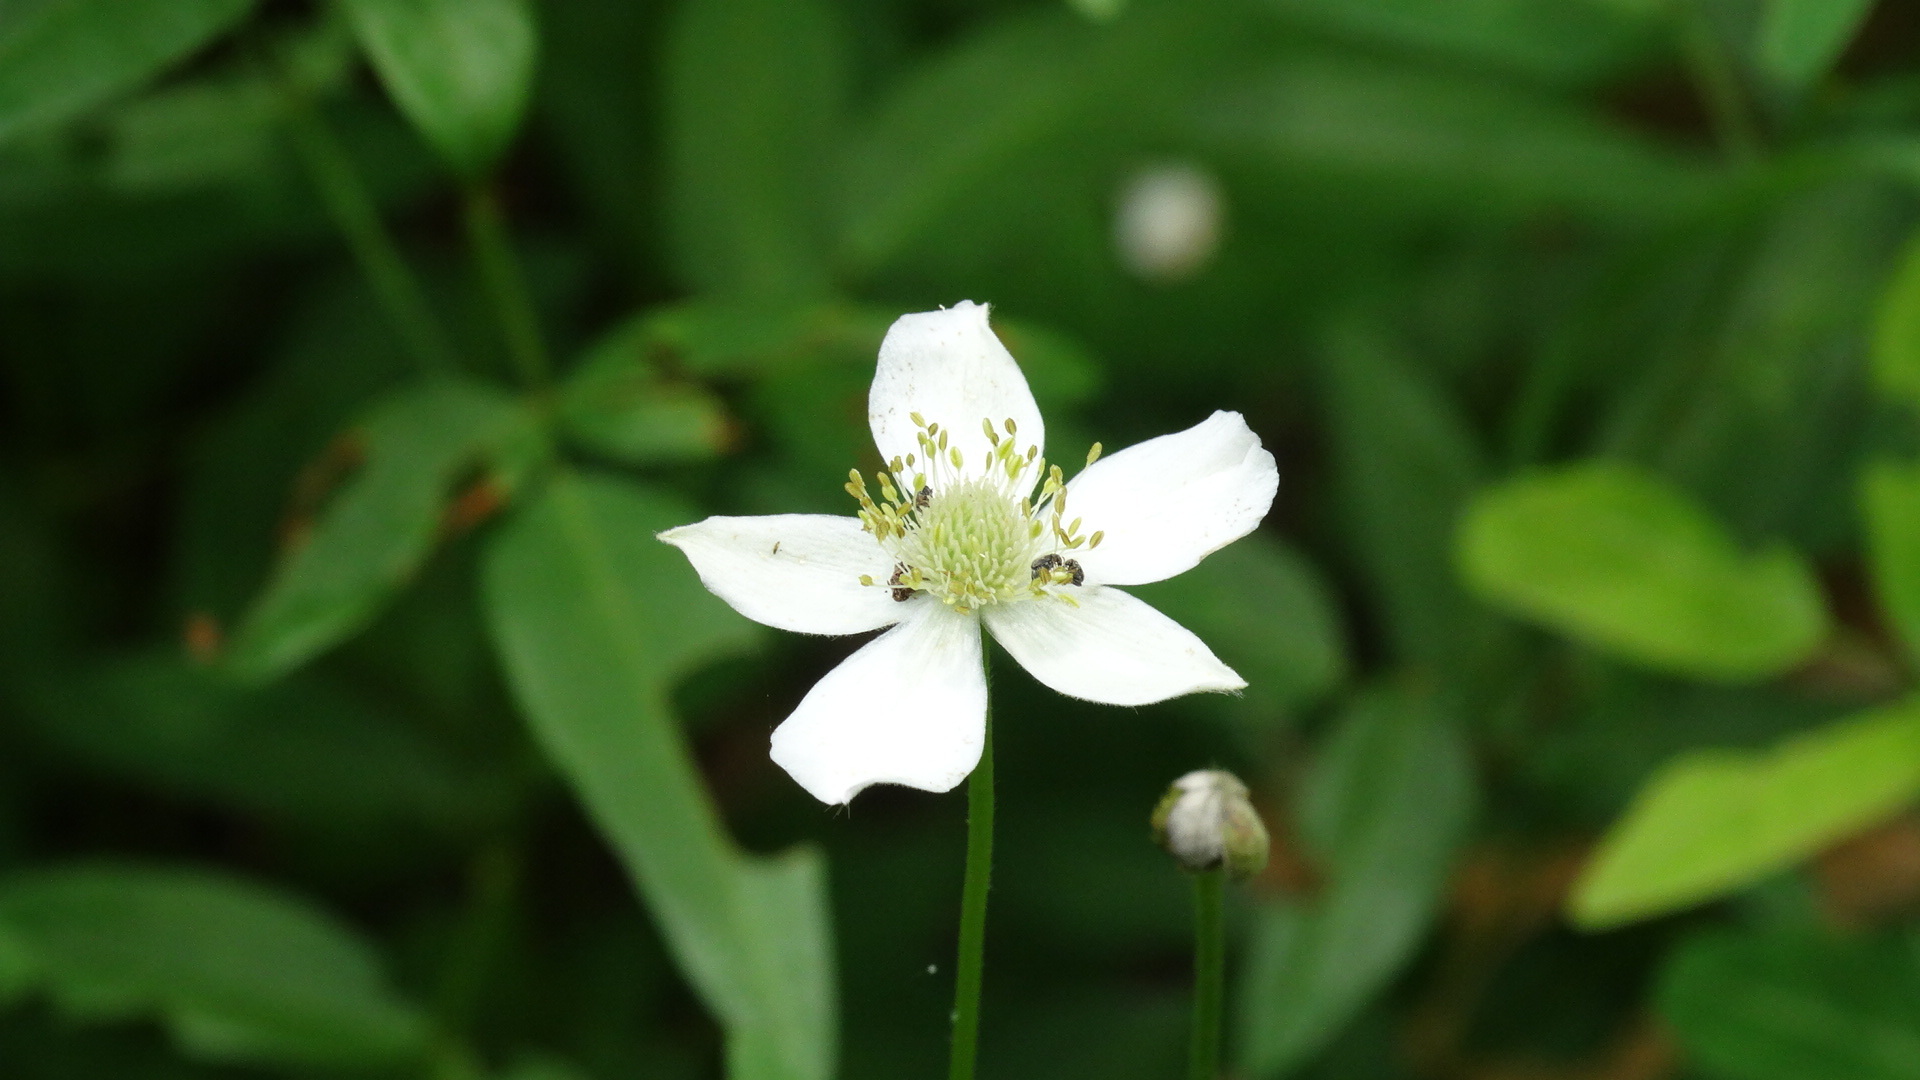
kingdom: Plantae
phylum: Tracheophyta
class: Magnoliopsida
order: Ranunculales
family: Ranunculaceae
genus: Anemone
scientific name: Anemone virginiana
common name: Tall anemone
